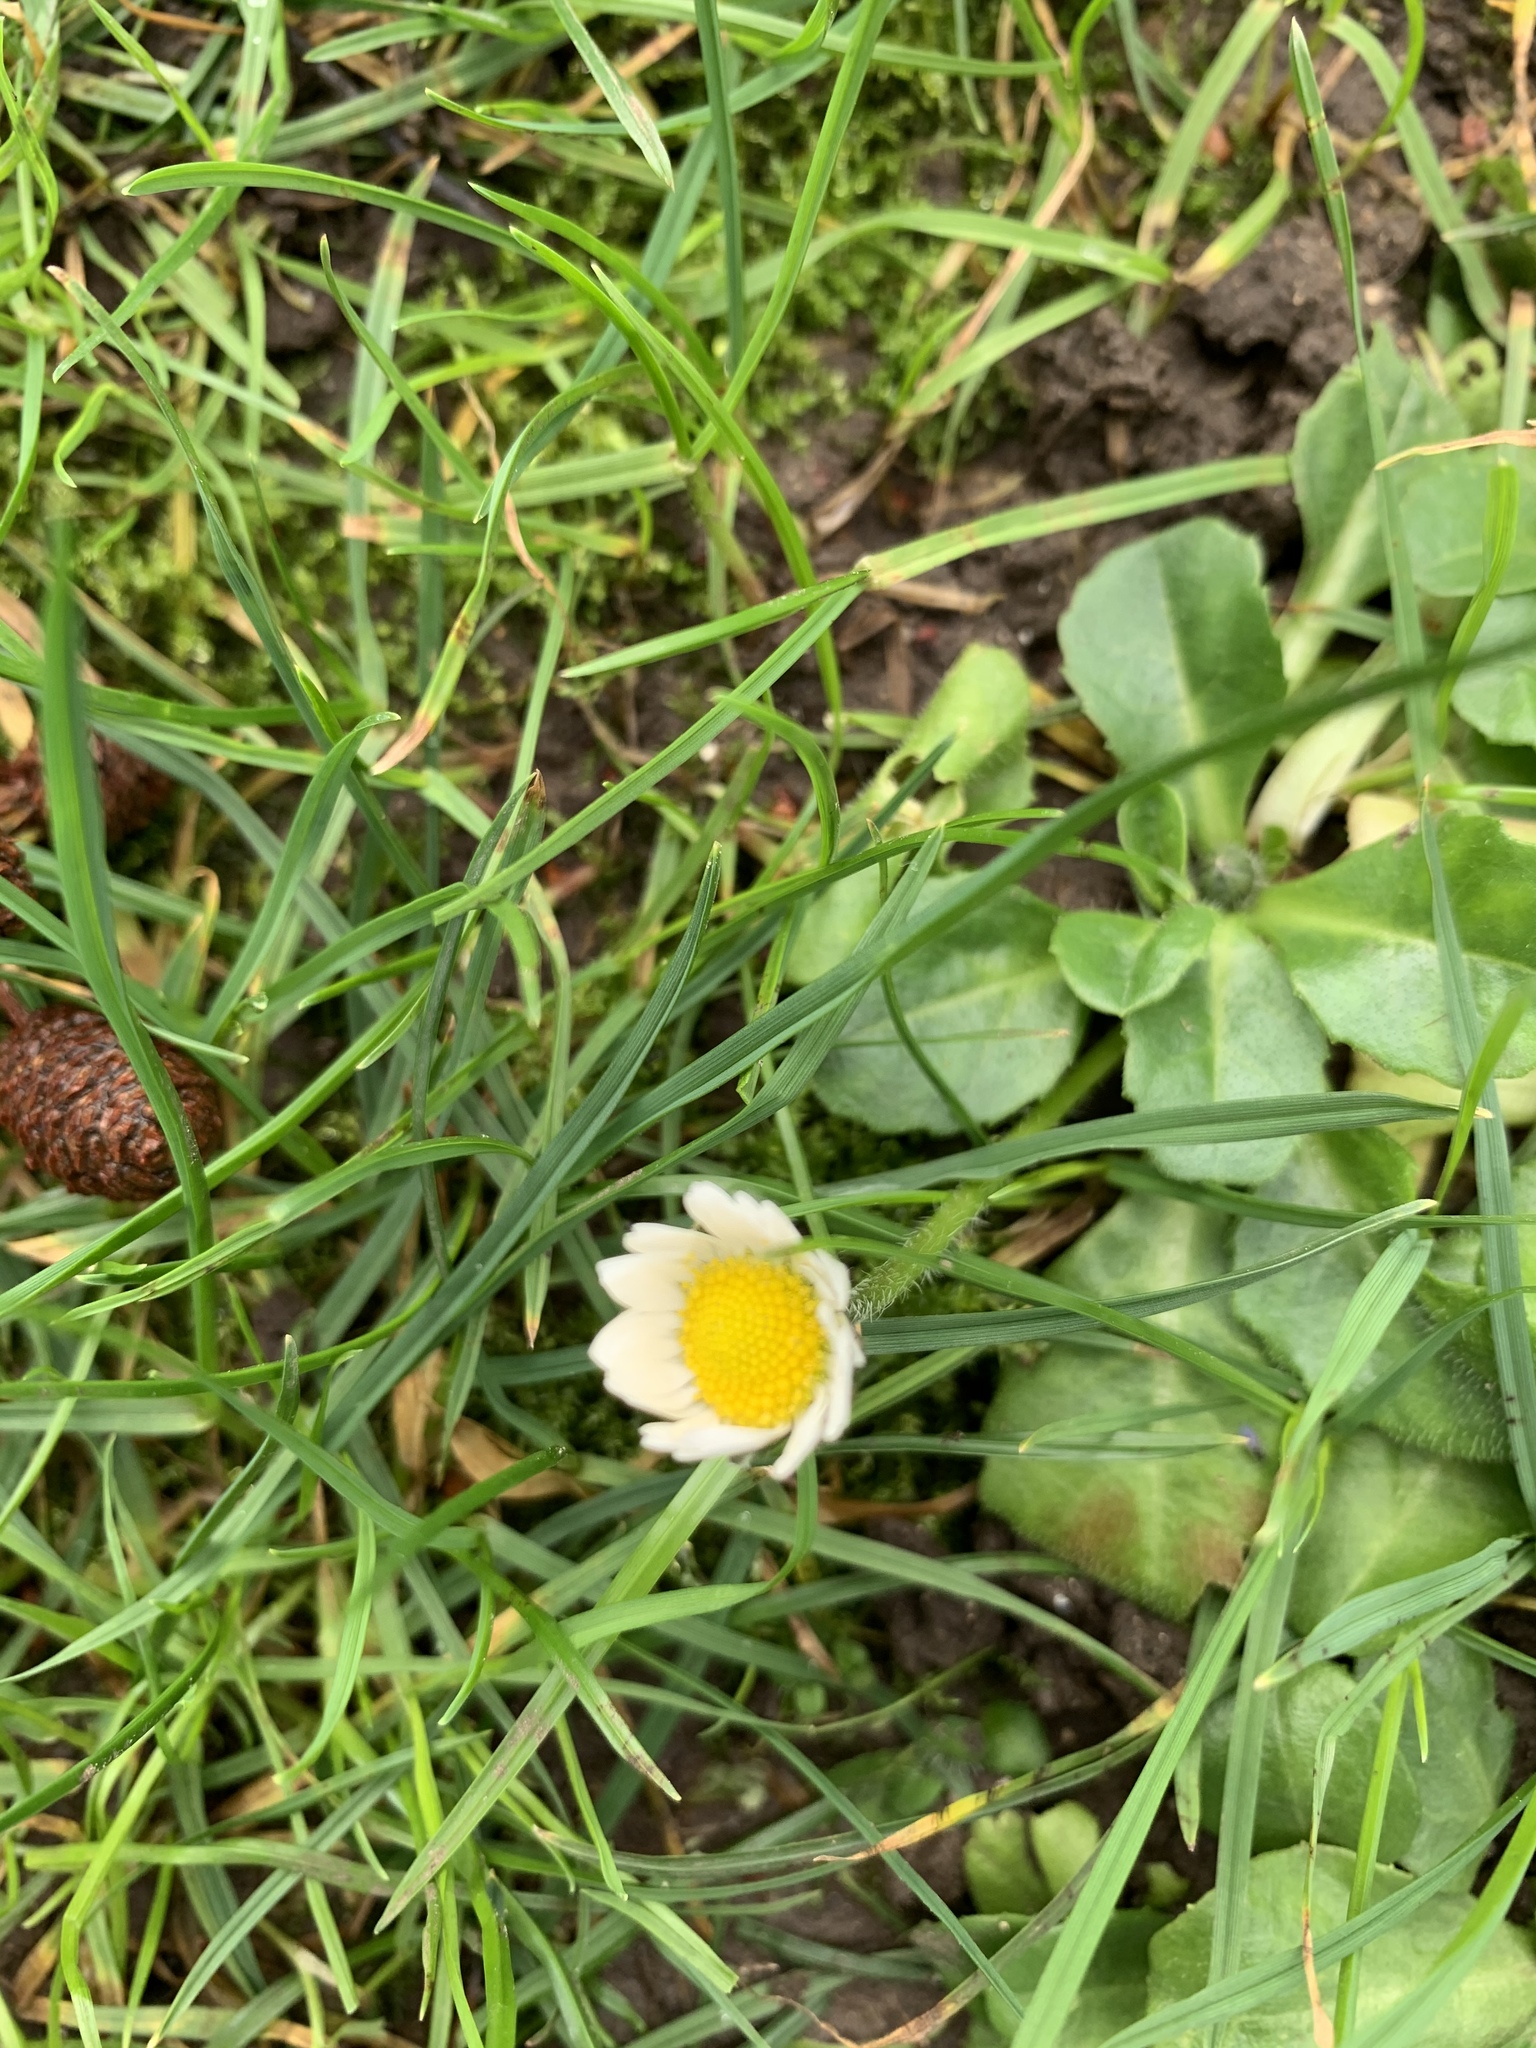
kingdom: Plantae
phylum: Tracheophyta
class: Magnoliopsida
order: Asterales
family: Asteraceae
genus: Bellis
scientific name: Bellis perennis
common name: Lawndaisy
